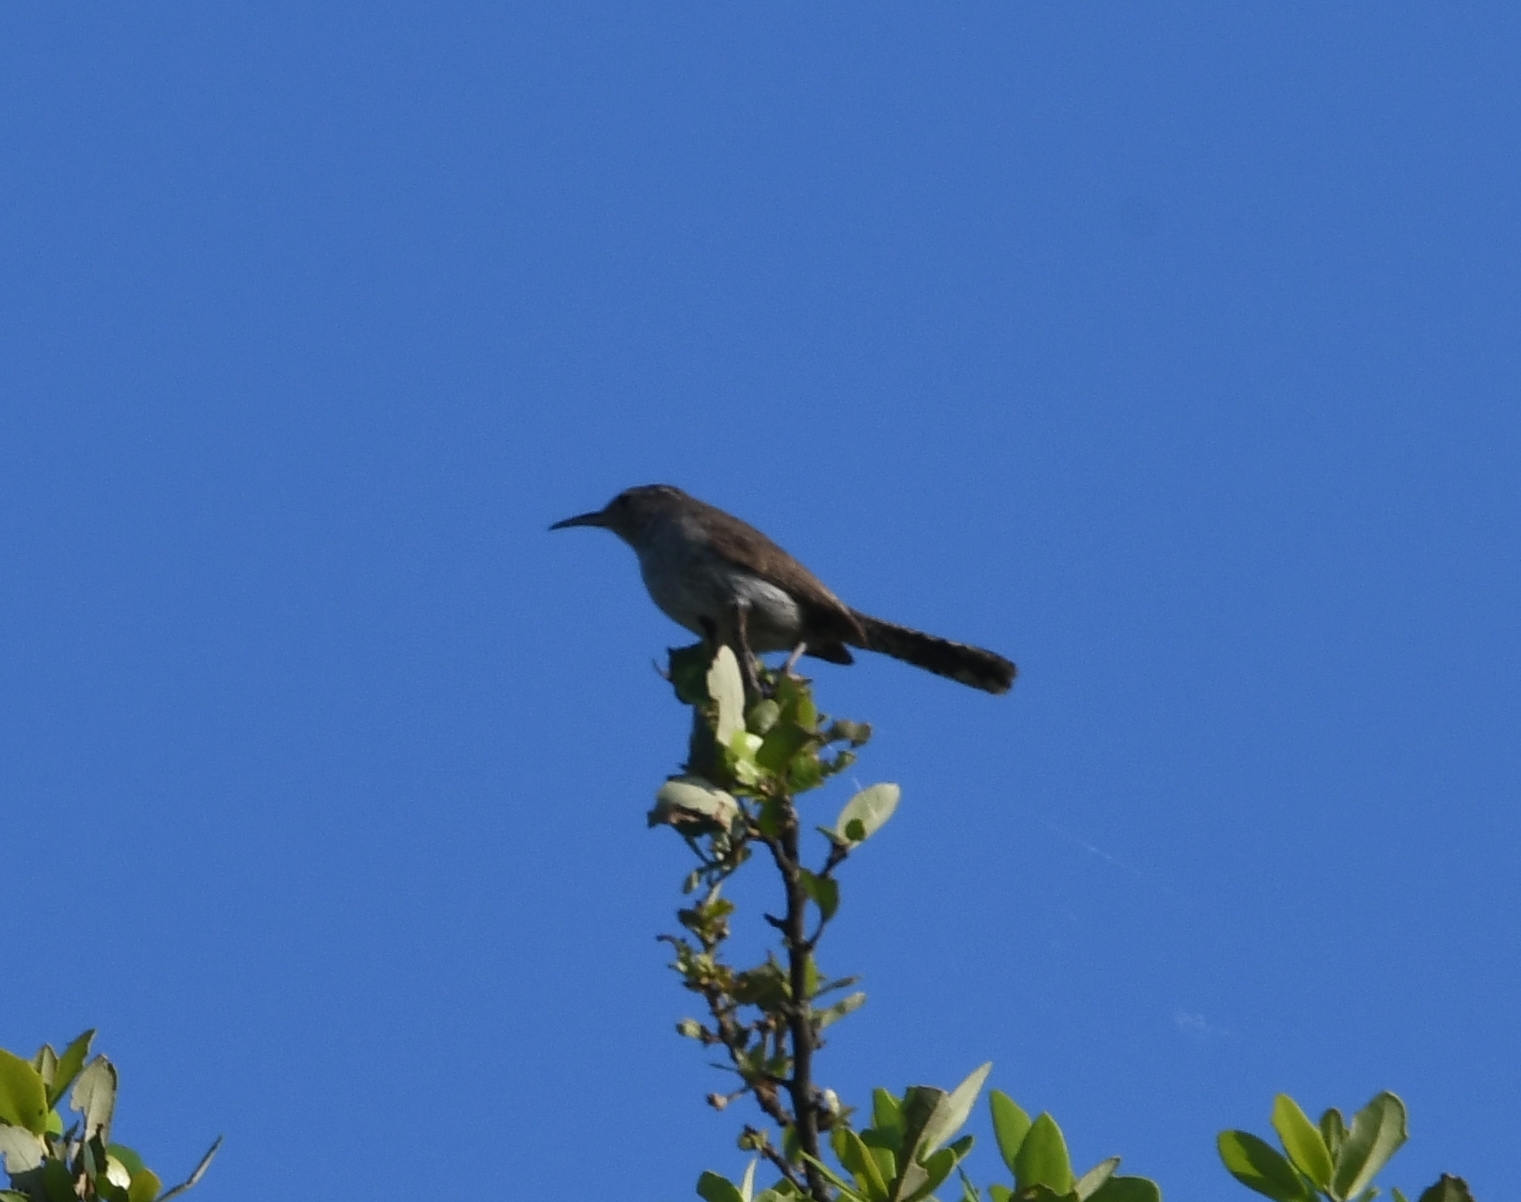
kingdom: Animalia
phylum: Chordata
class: Aves
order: Passeriformes
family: Troglodytidae
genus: Thryomanes
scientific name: Thryomanes bewickii
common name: Bewick's wren
